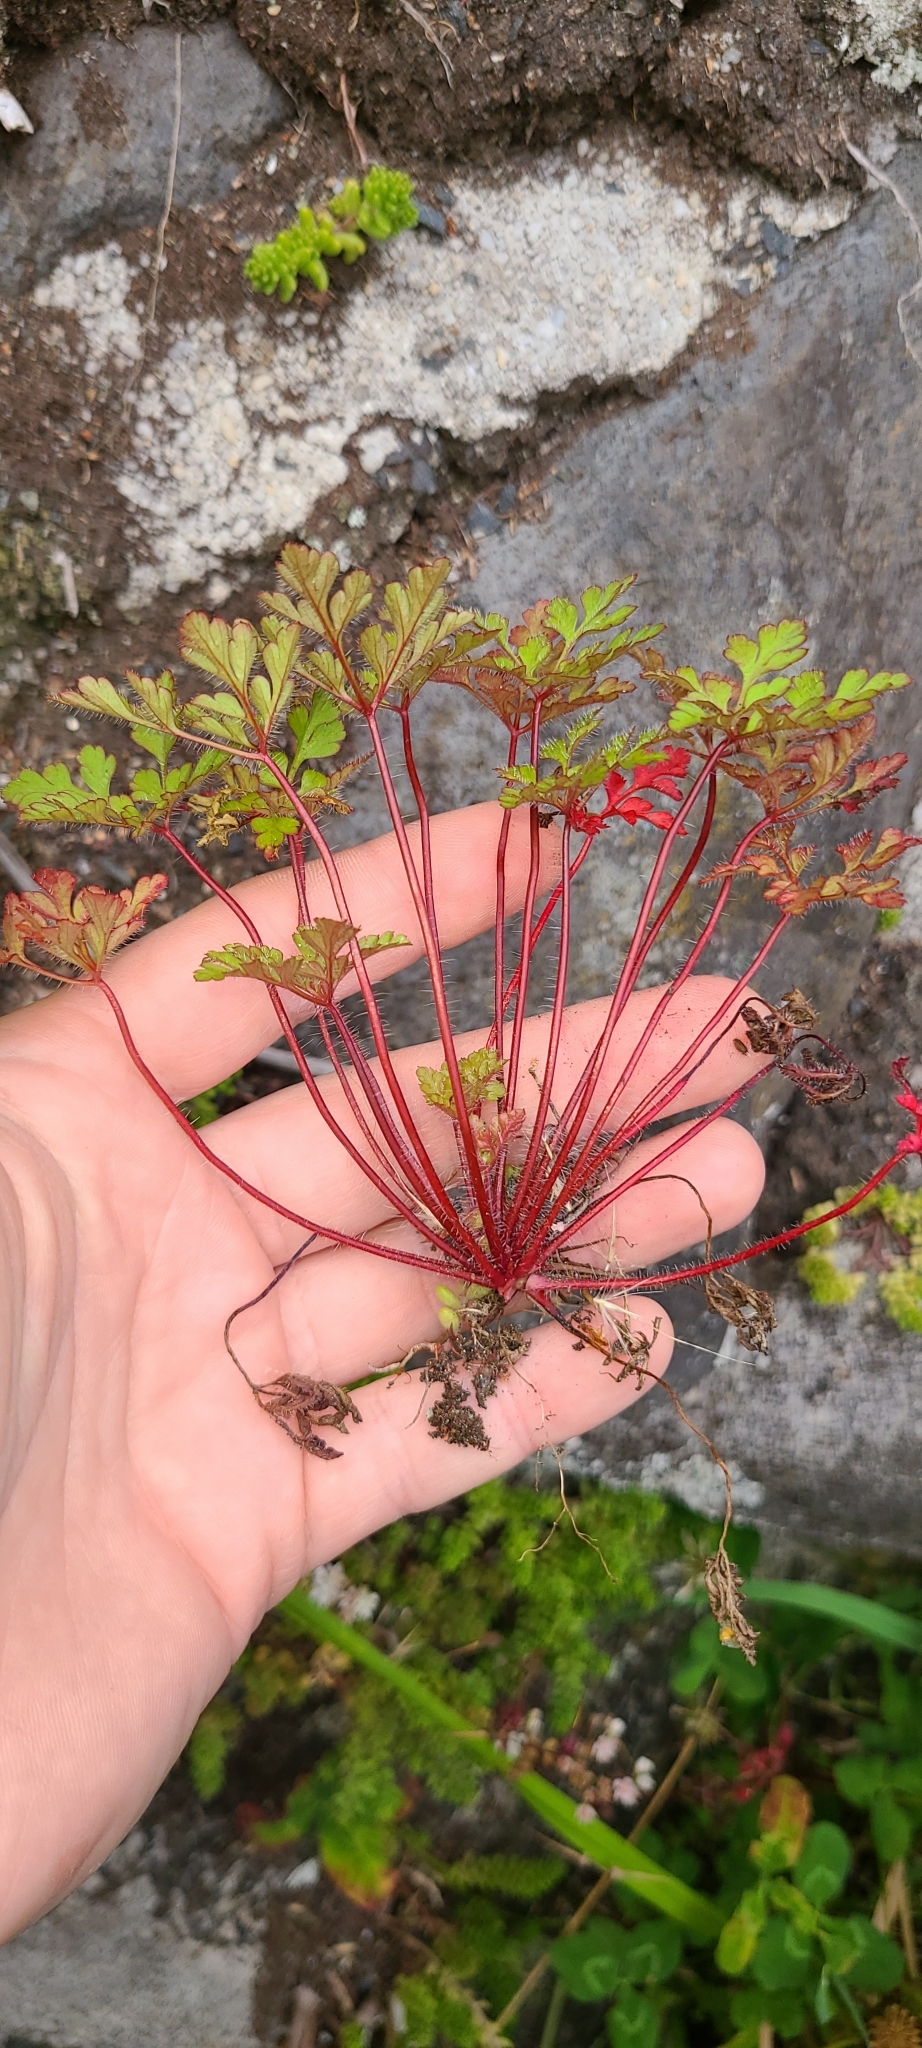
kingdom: Plantae
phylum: Tracheophyta
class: Magnoliopsida
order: Geraniales
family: Geraniaceae
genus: Geranium
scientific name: Geranium robertianum
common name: Herb-robert
